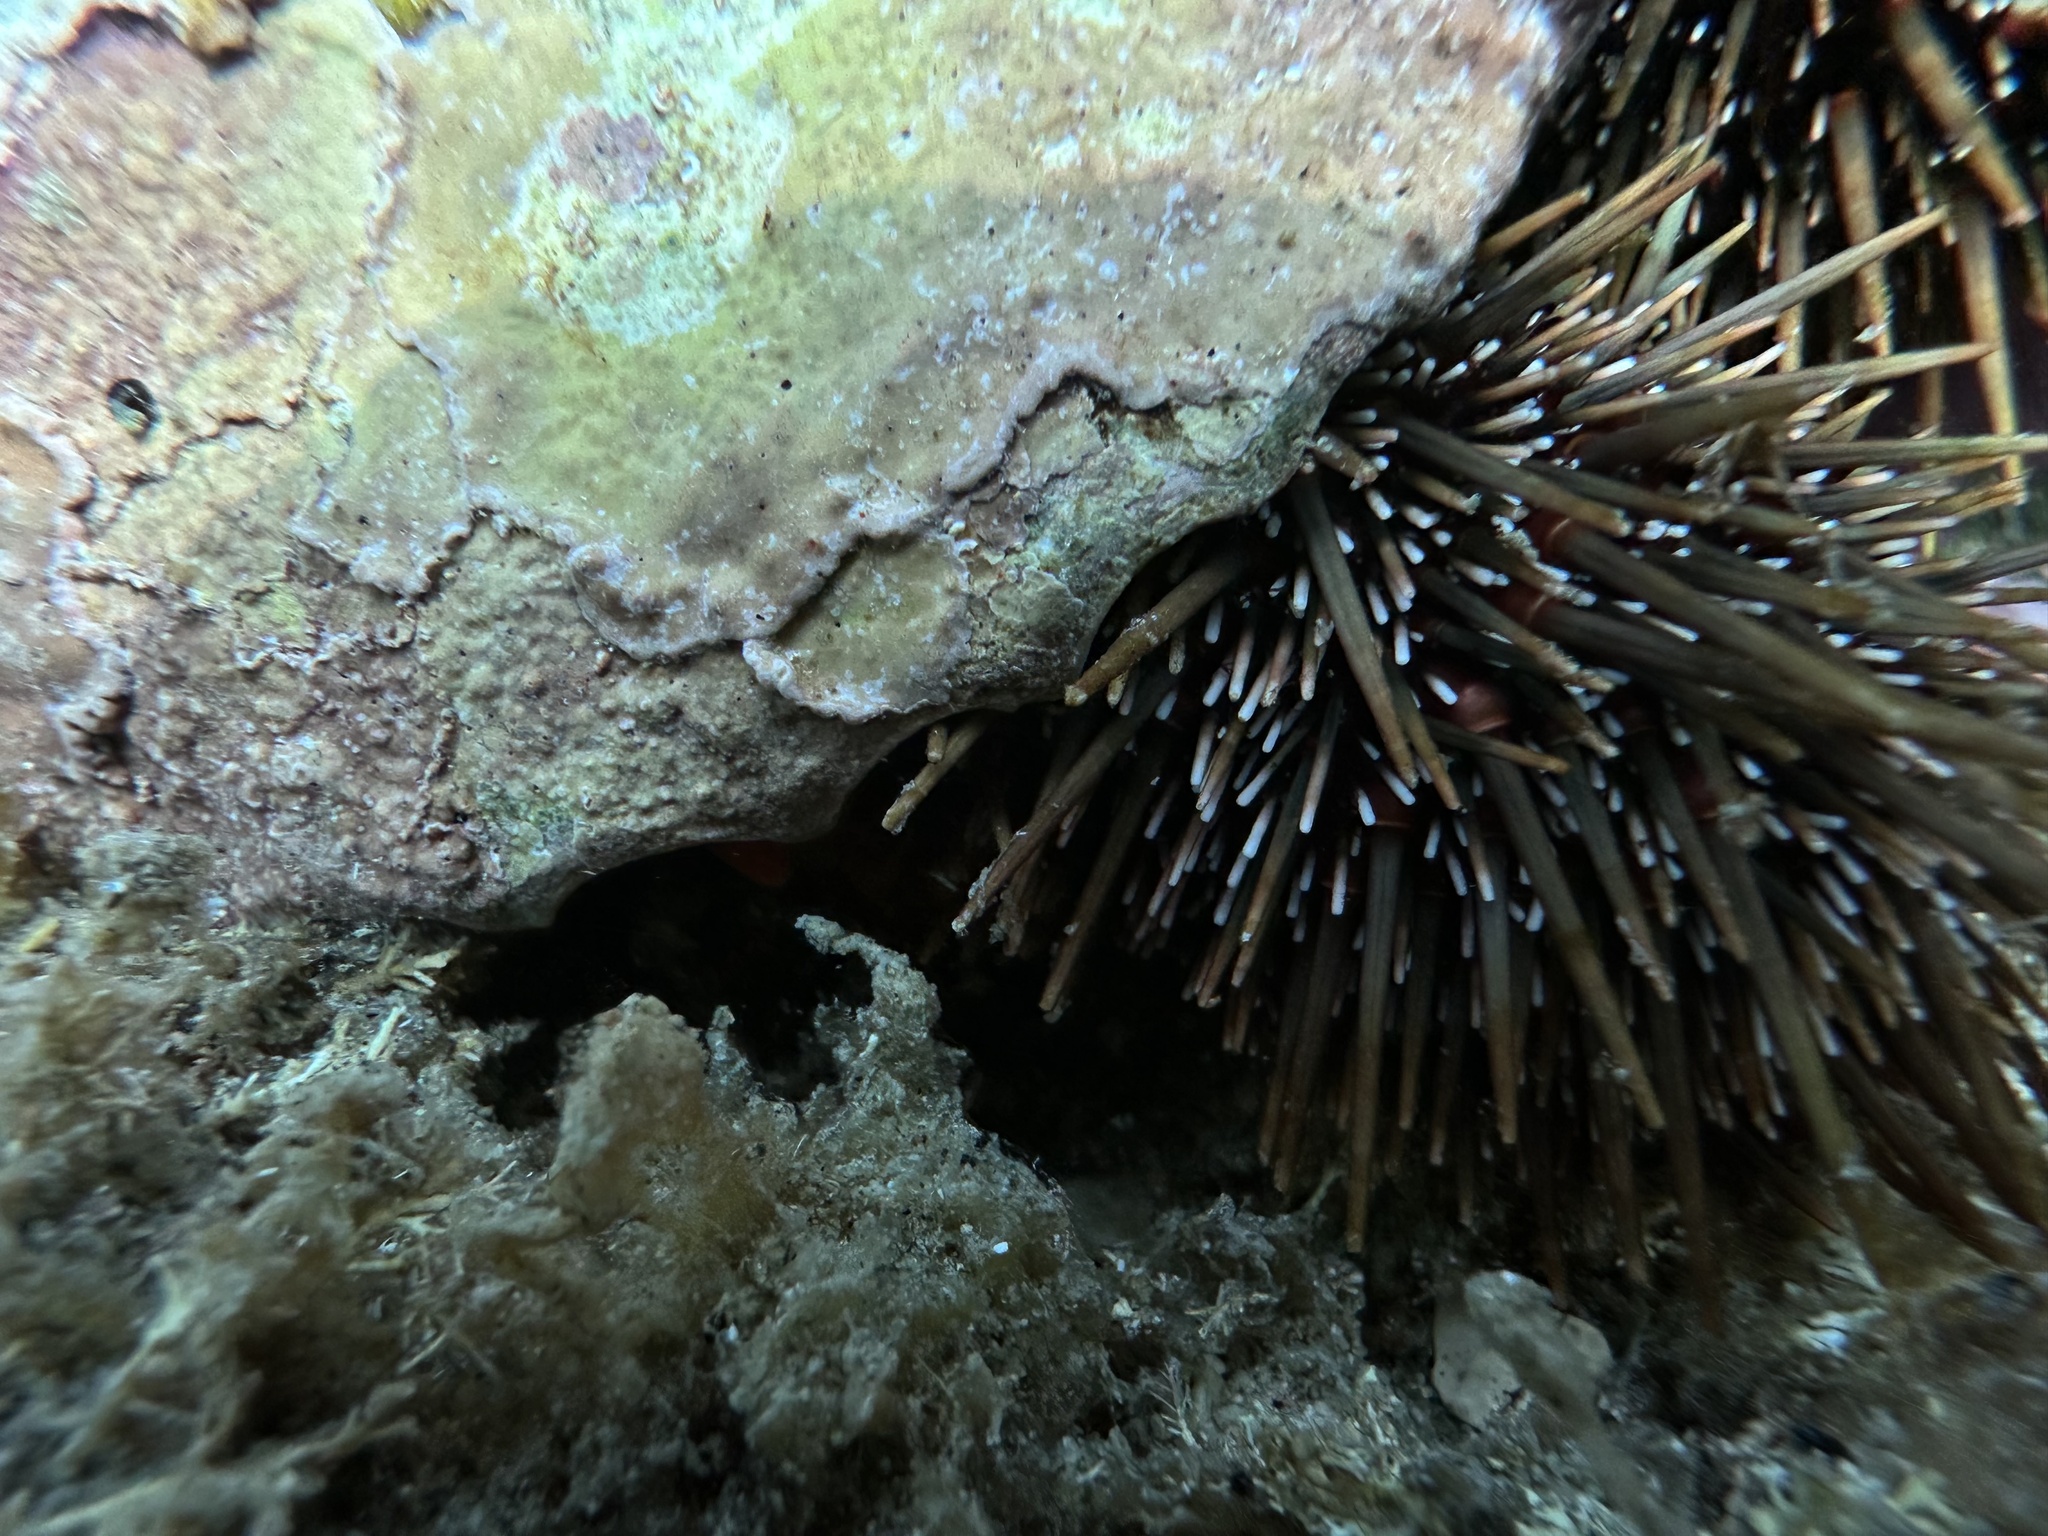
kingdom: Animalia
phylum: Mollusca
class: Gastropoda
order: Littorinimorpha
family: Charoniidae
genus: Charonia
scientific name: Charonia lampas
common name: Knobbed triton
